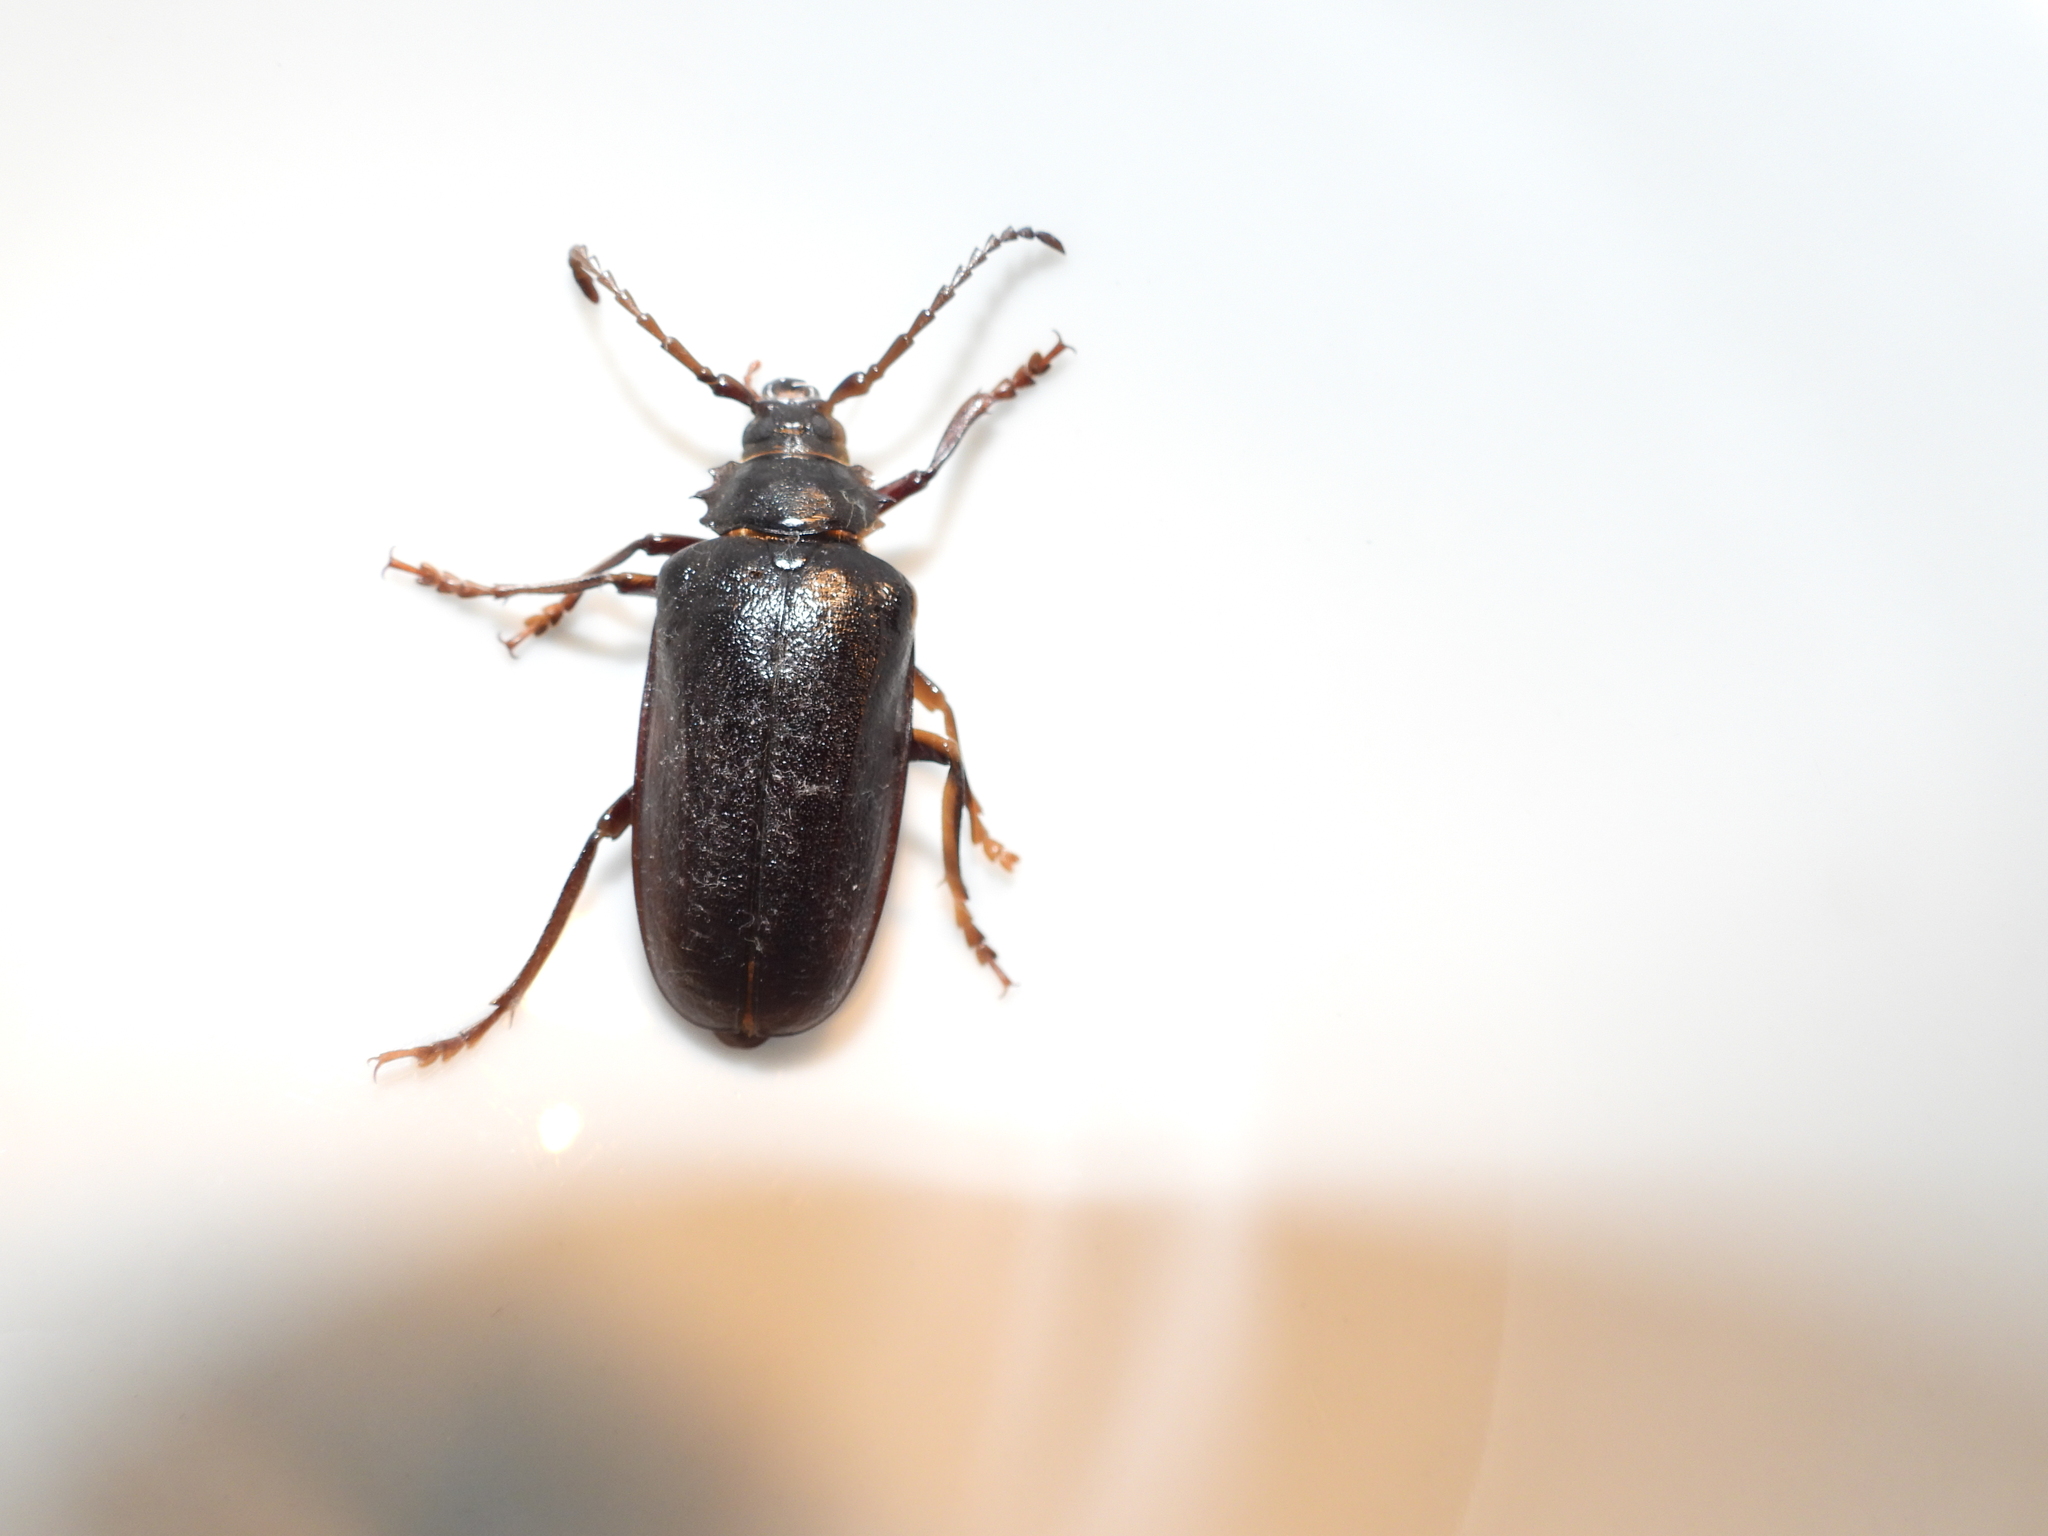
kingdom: Animalia
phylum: Arthropoda
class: Insecta
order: Coleoptera
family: Cerambycidae
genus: Prionus
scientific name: Prionus coriarius
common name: Tanner beetle
